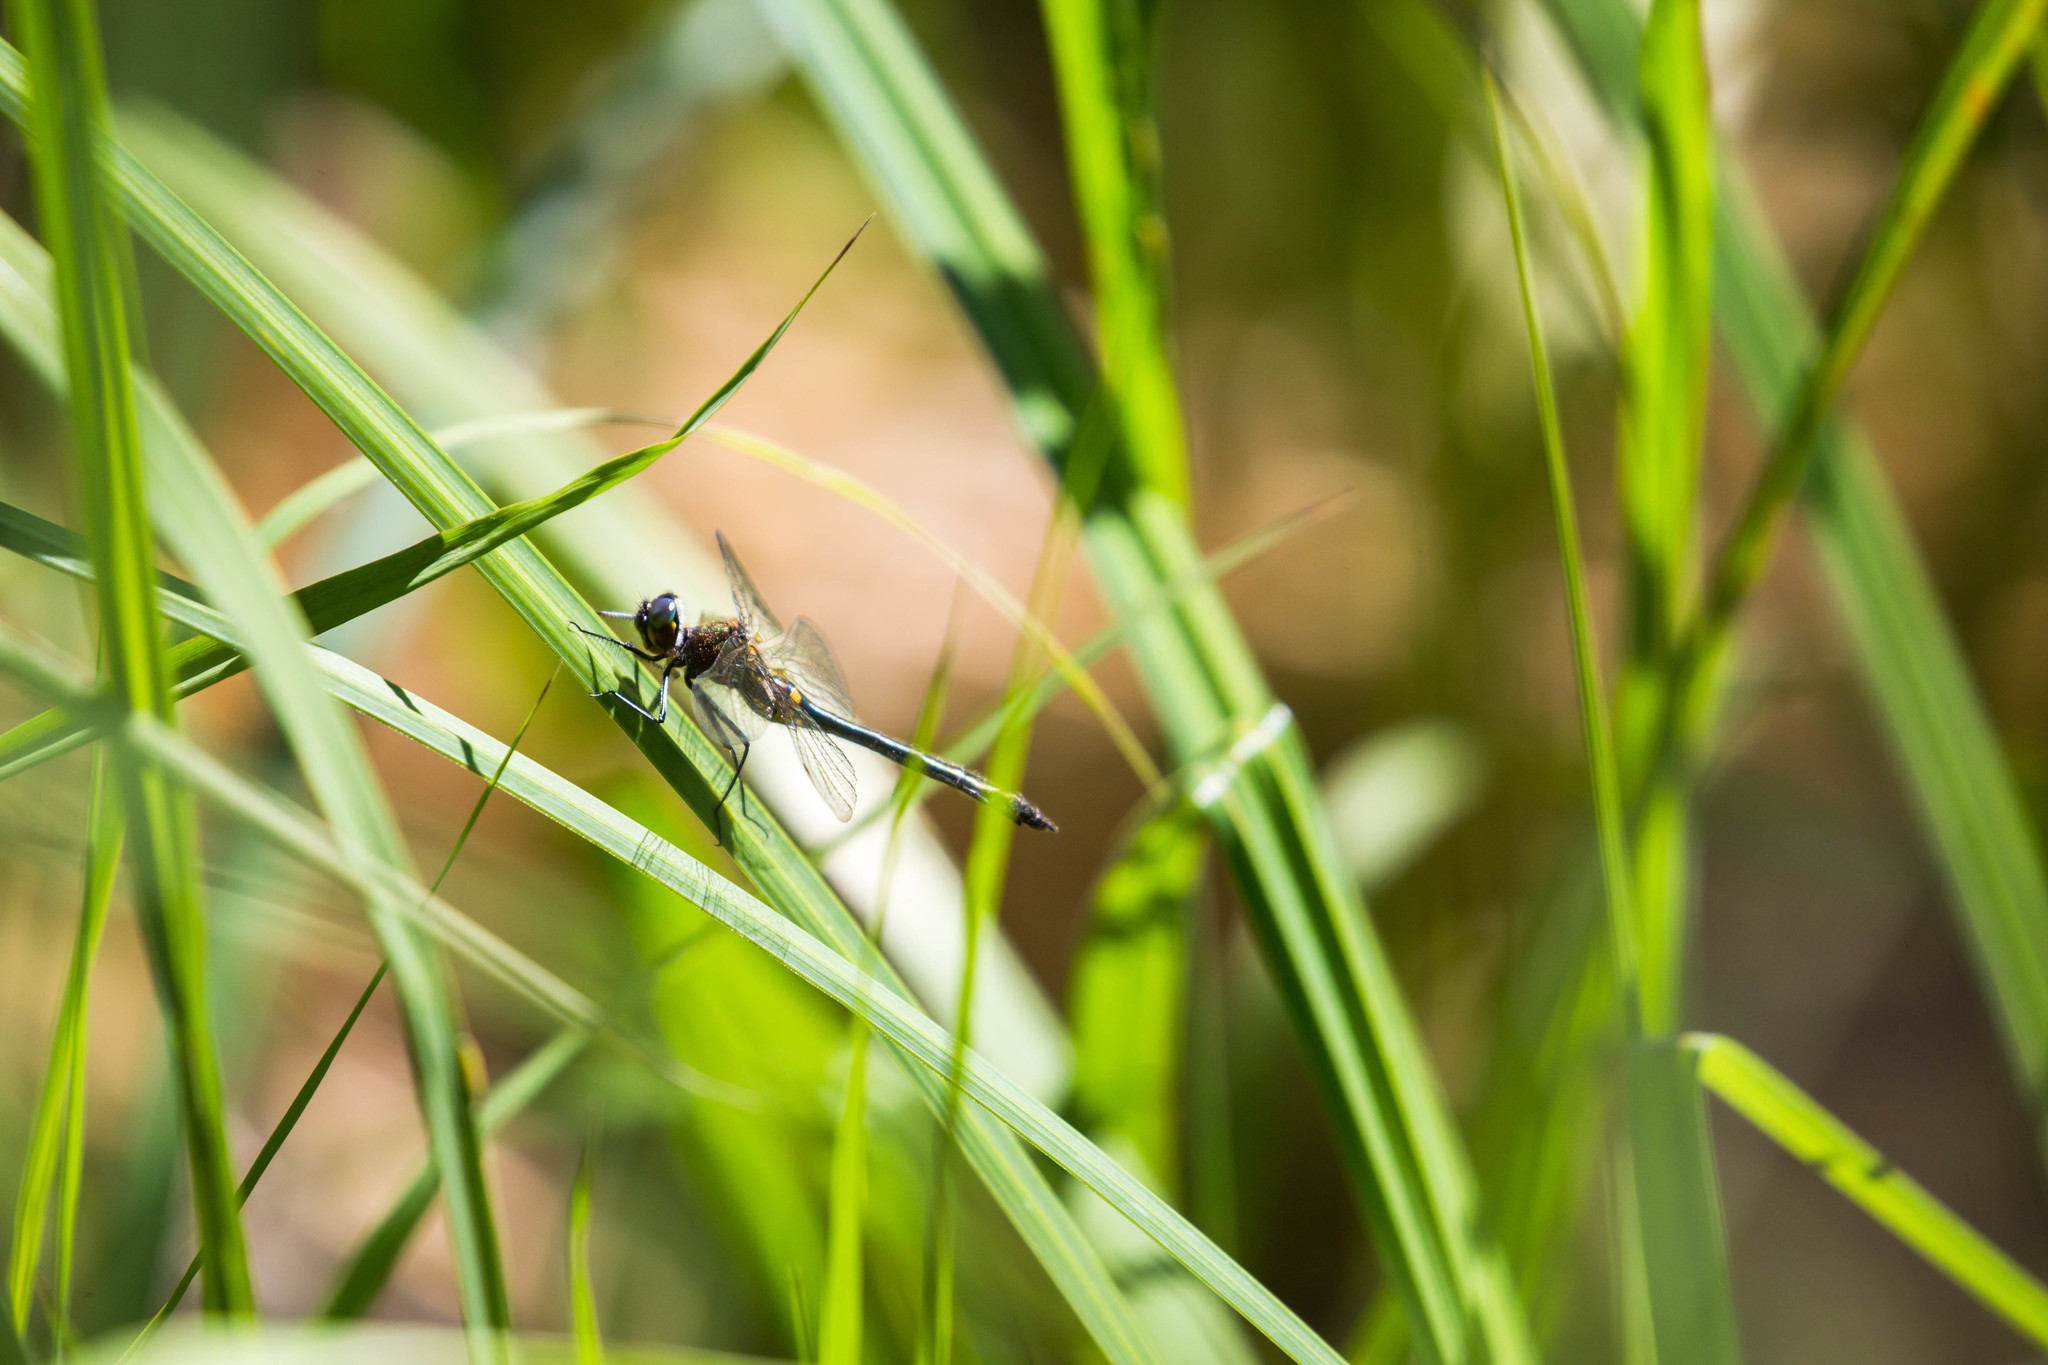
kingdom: Animalia
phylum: Arthropoda
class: Insecta
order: Odonata
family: Corduliidae
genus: Dorocordulia
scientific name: Dorocordulia libera
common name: Racket-tailed emerald
